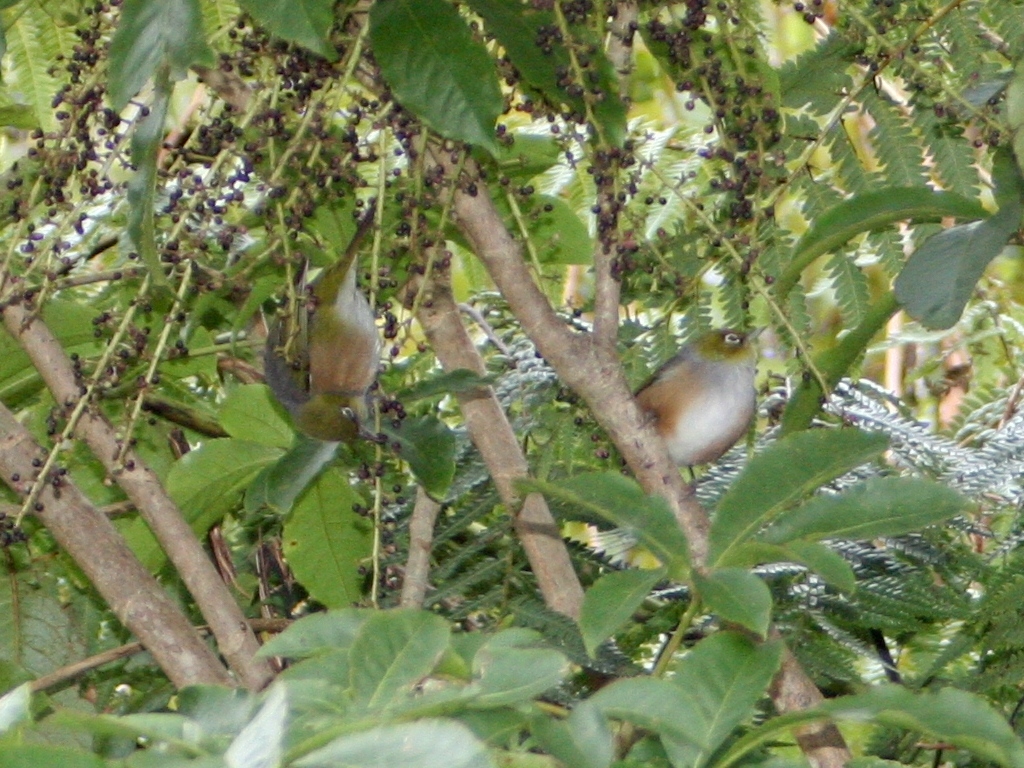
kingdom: Animalia
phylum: Chordata
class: Aves
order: Passeriformes
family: Zosteropidae
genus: Zosterops
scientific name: Zosterops lateralis
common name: Silvereye
